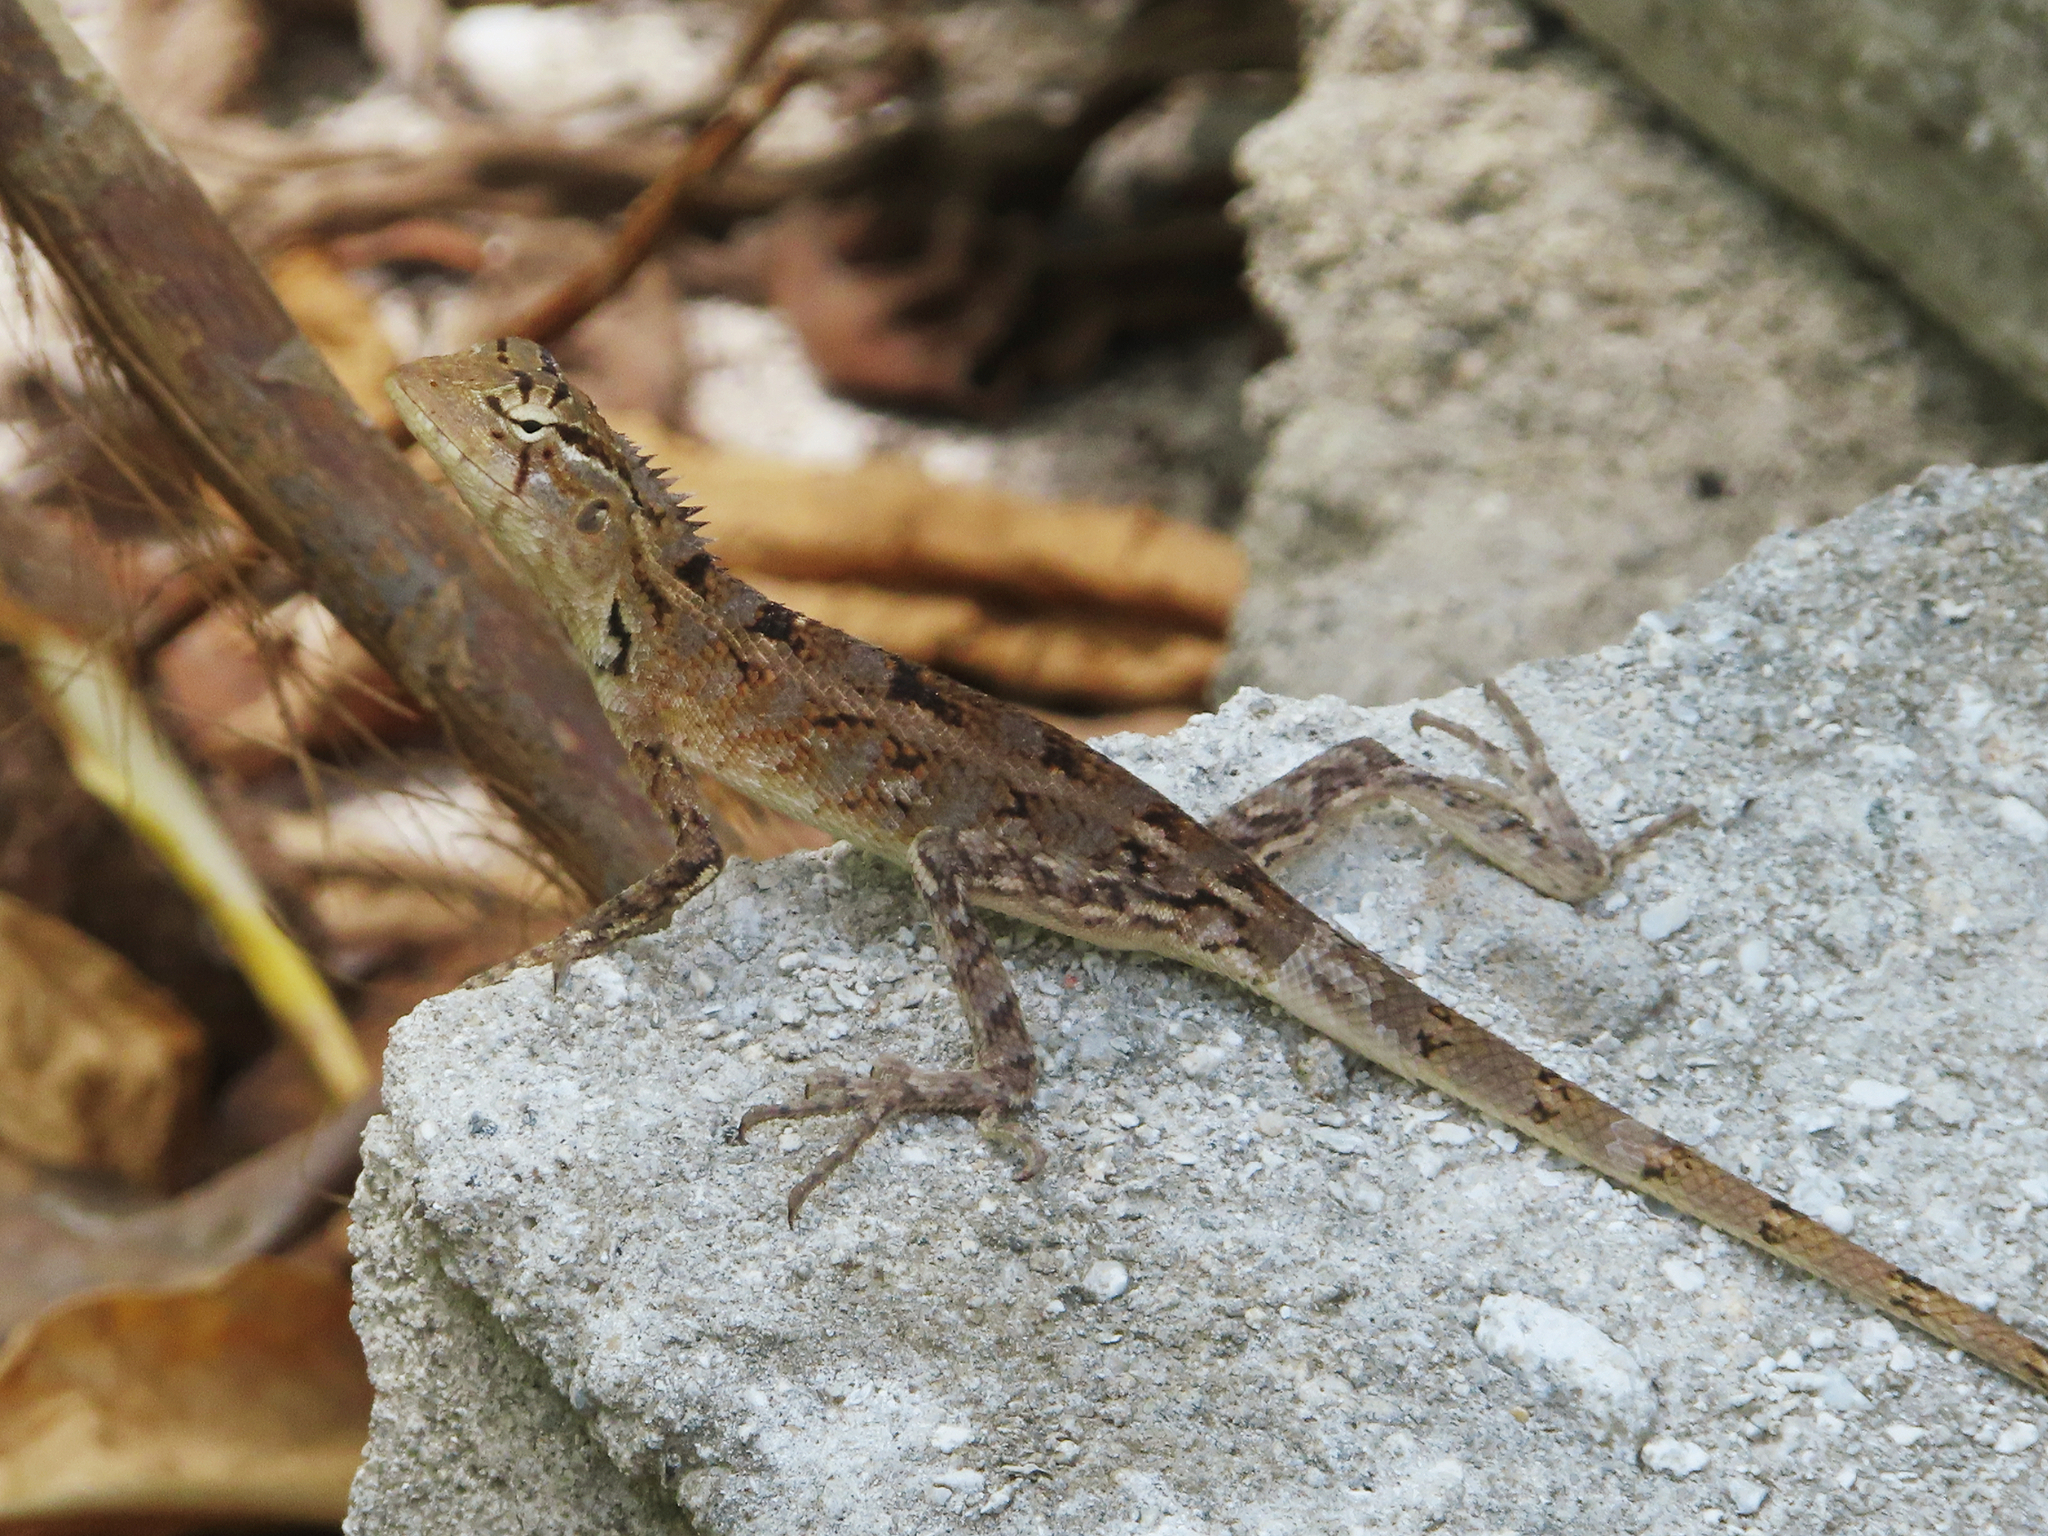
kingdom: Animalia
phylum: Chordata
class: Squamata
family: Agamidae
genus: Calotes
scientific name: Calotes versicolor
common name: Oriental garden lizard
